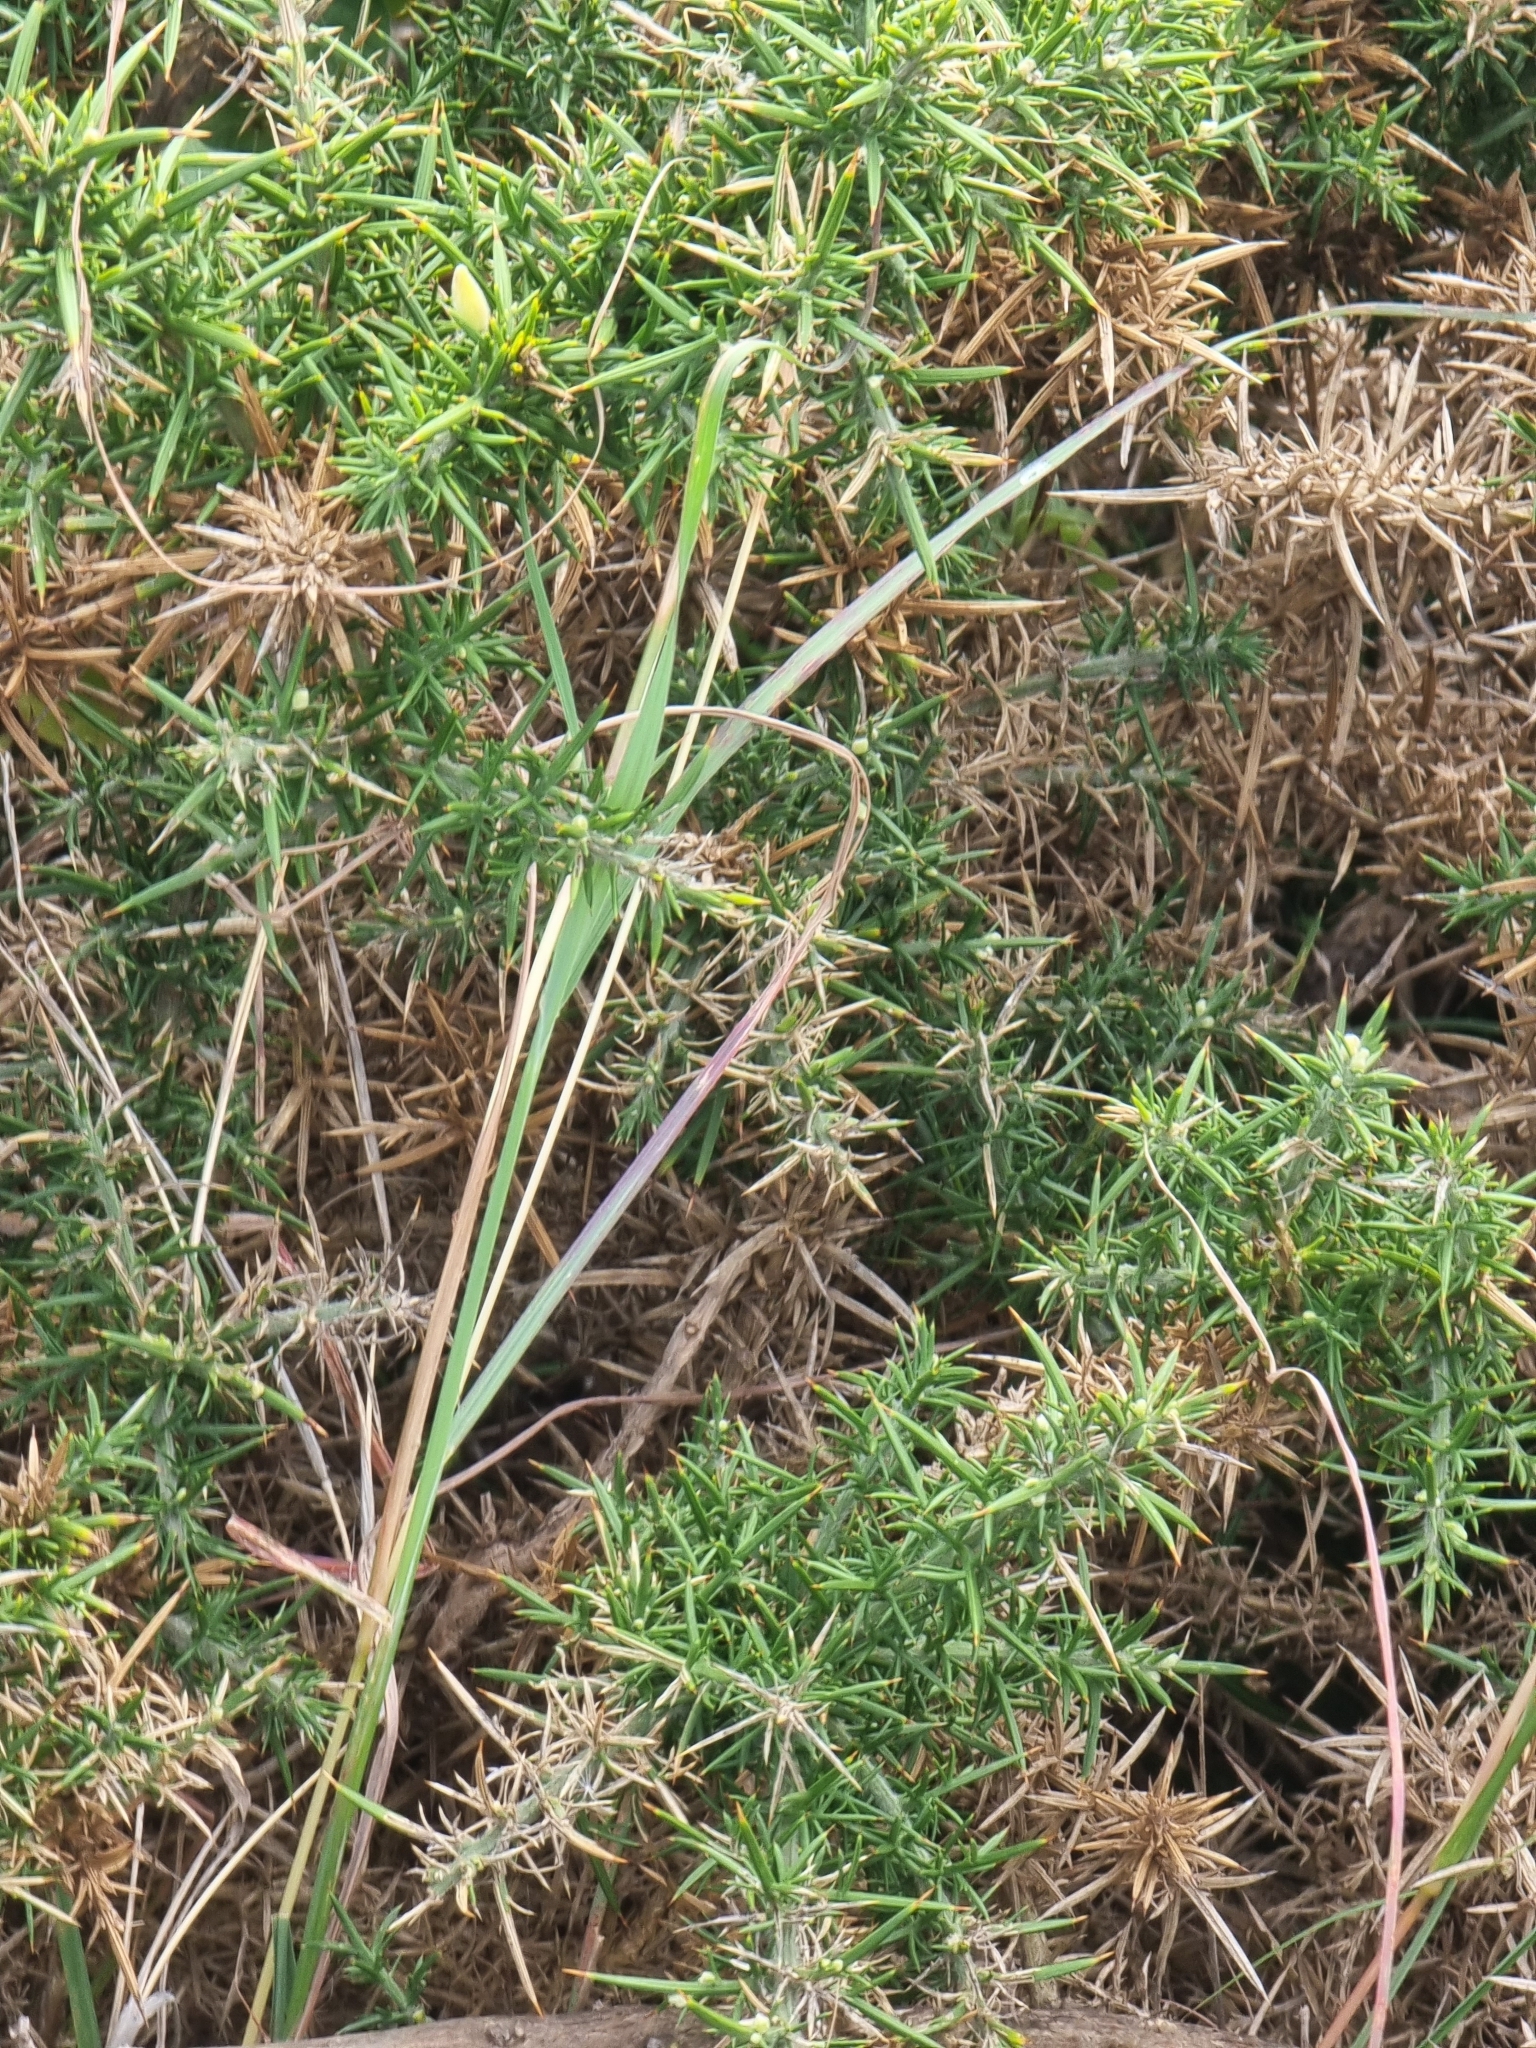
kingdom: Plantae
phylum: Tracheophyta
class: Magnoliopsida
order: Fabales
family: Fabaceae
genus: Ulex
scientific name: Ulex europaeus
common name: Common gorse
